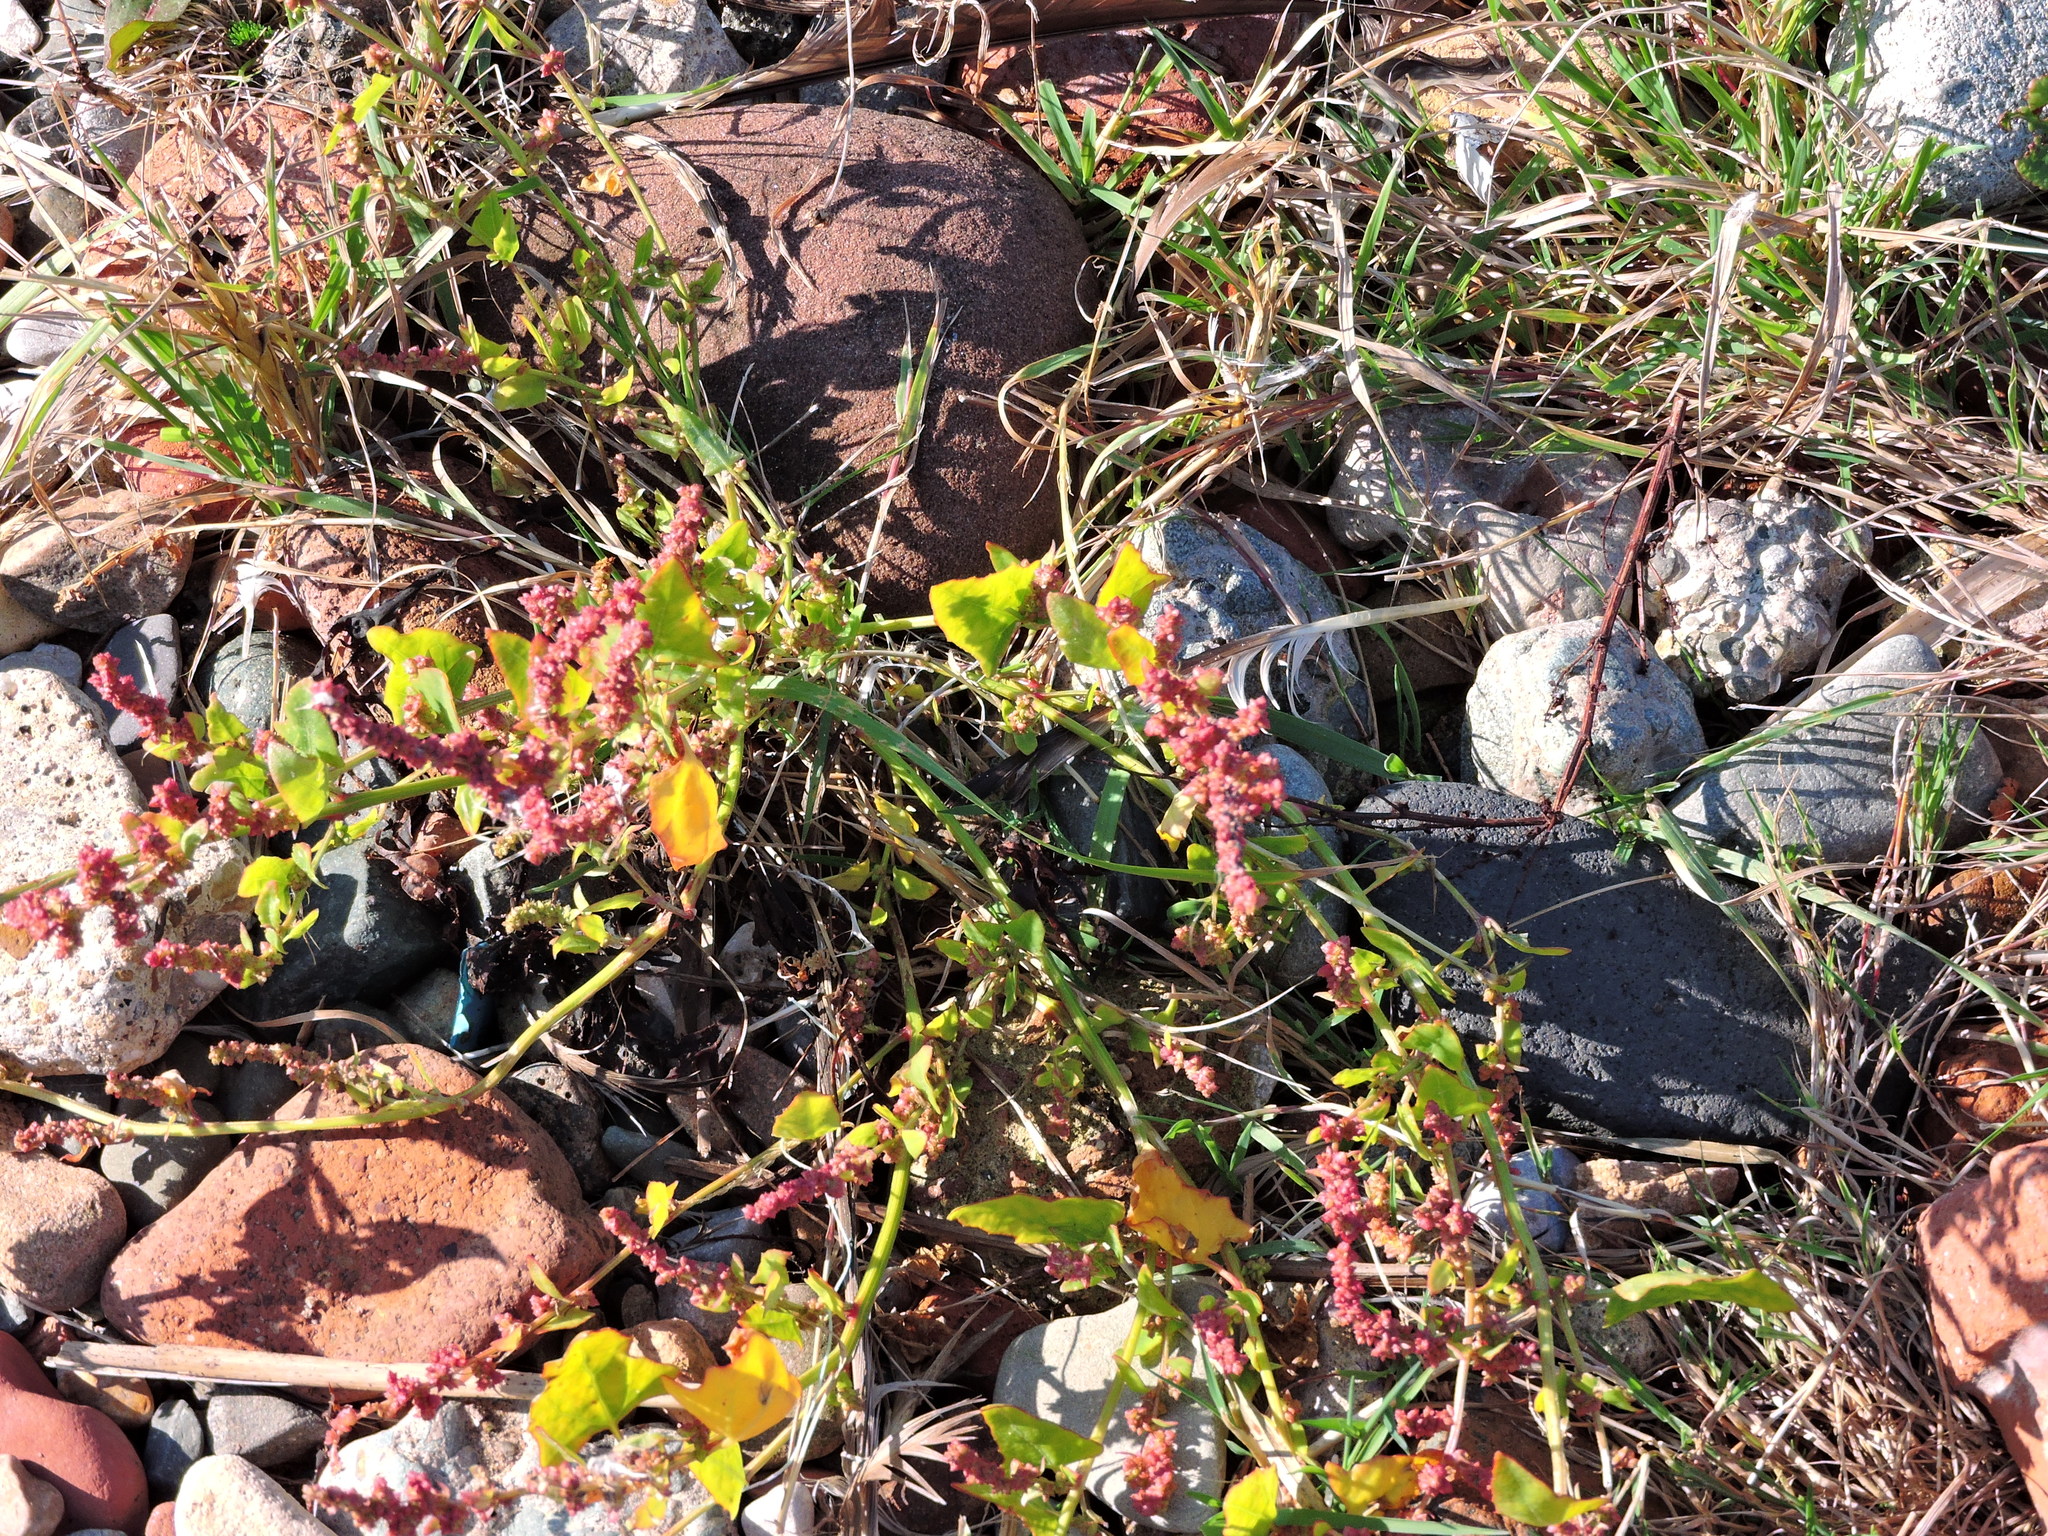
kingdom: Plantae
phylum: Tracheophyta
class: Magnoliopsida
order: Caryophyllales
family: Amaranthaceae
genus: Atriplex
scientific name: Atriplex prostrata
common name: Spear-leaved orache
